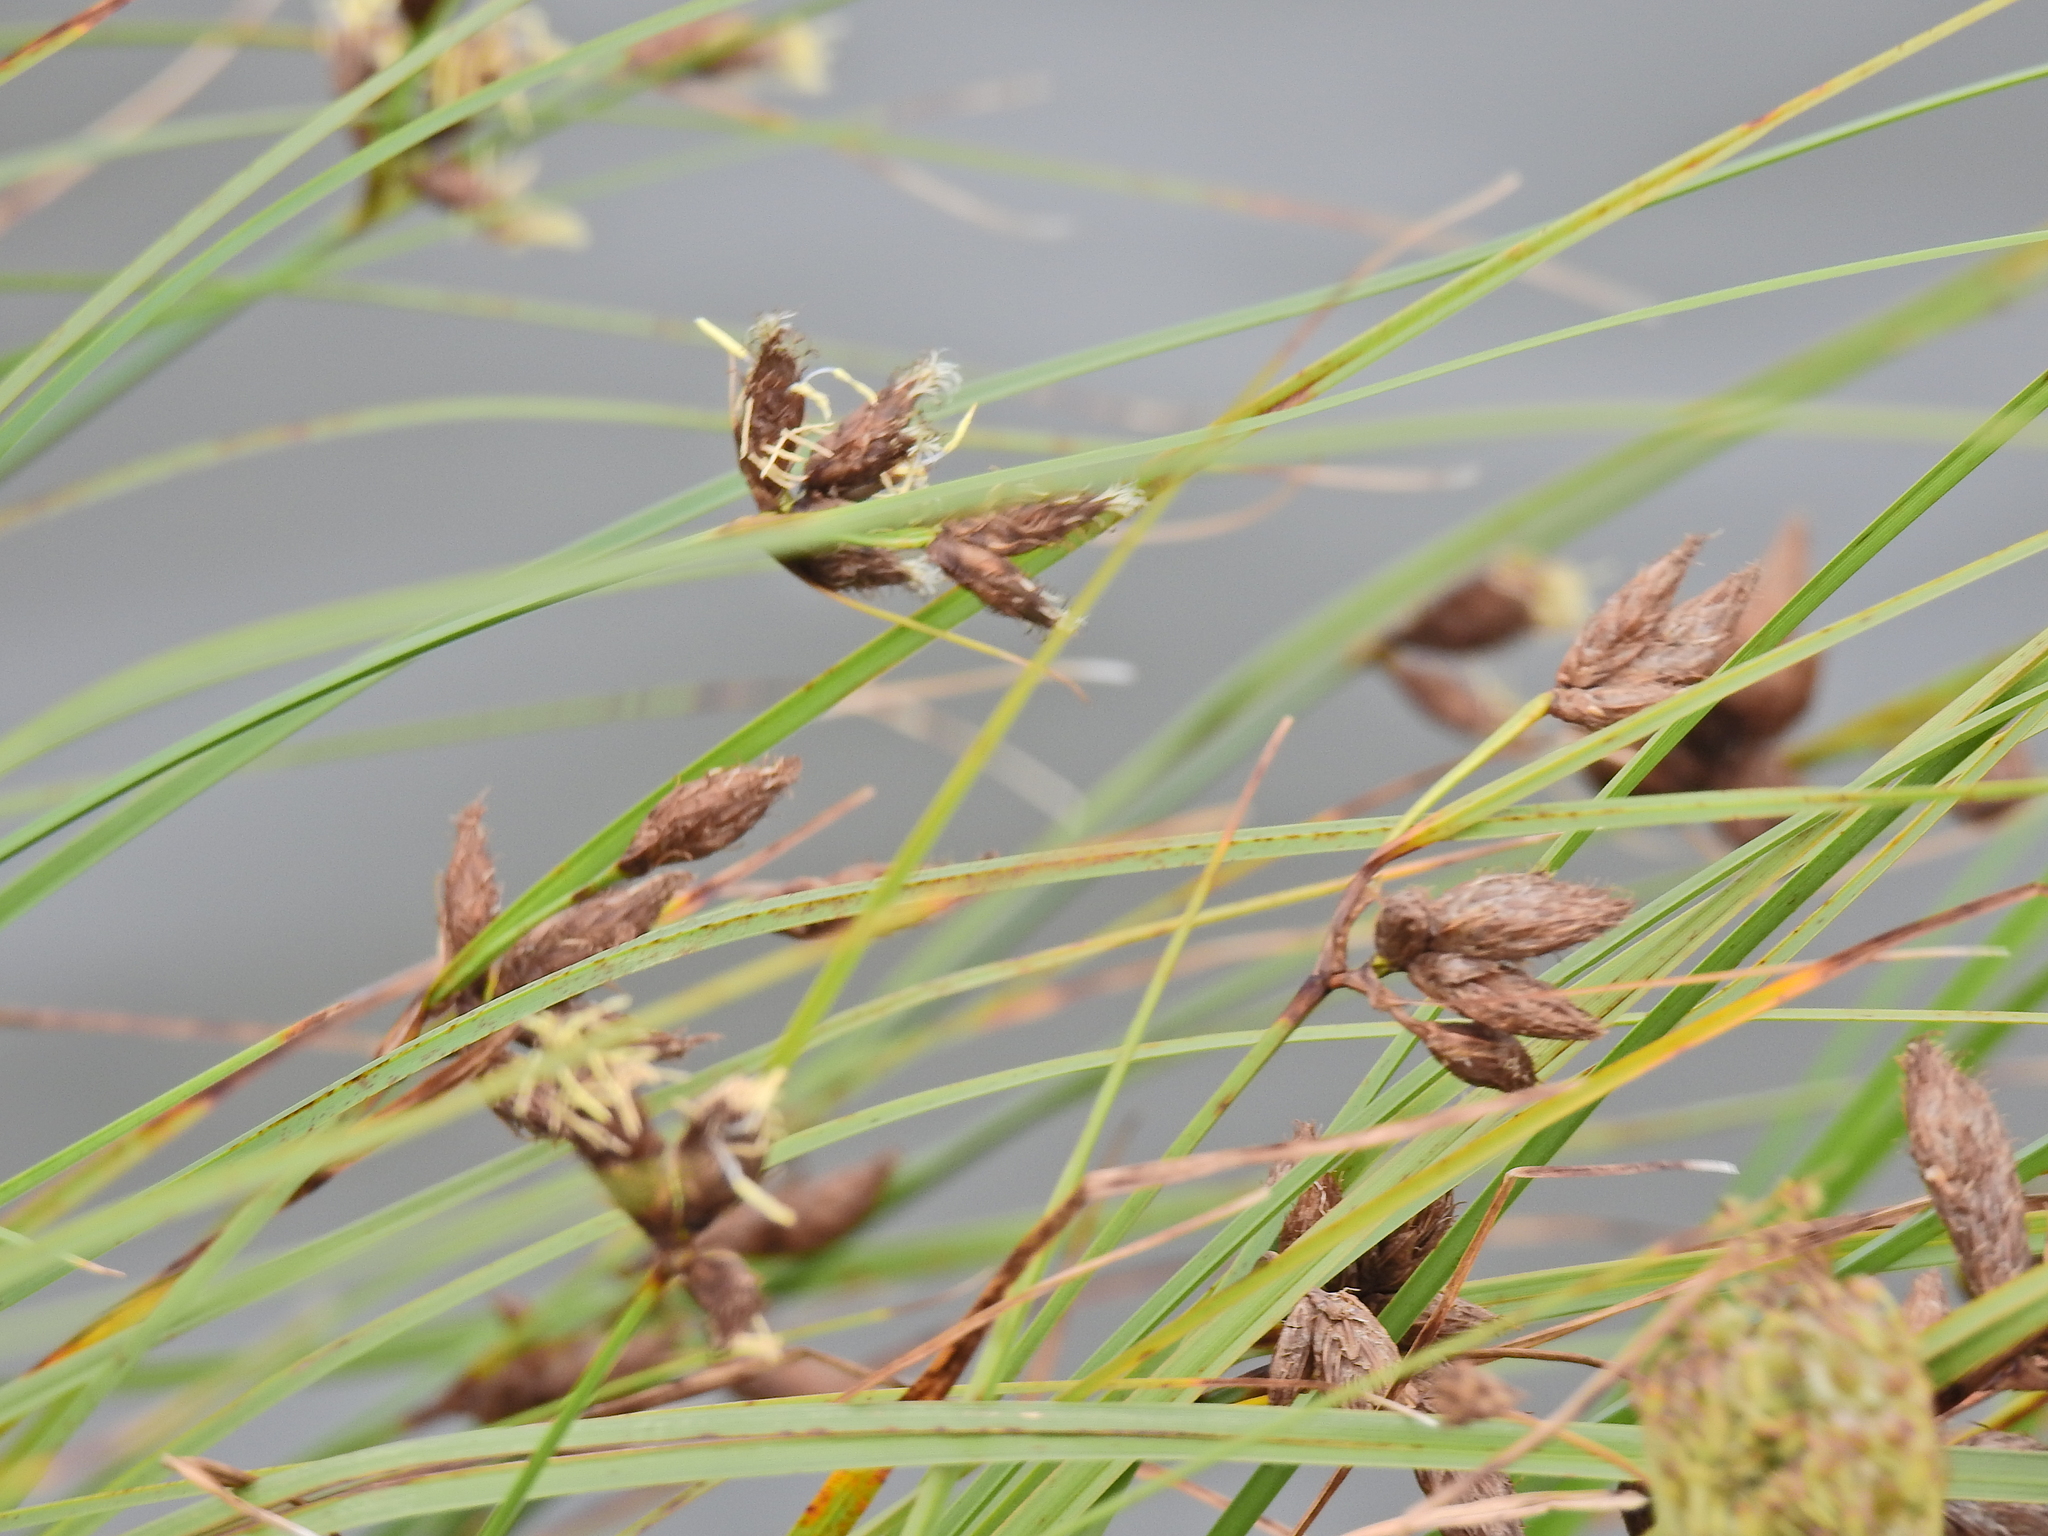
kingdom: Plantae
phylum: Tracheophyta
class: Liliopsida
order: Poales
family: Cyperaceae
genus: Bolboschoenus
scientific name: Bolboschoenus maritimus
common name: Sea club-rush
